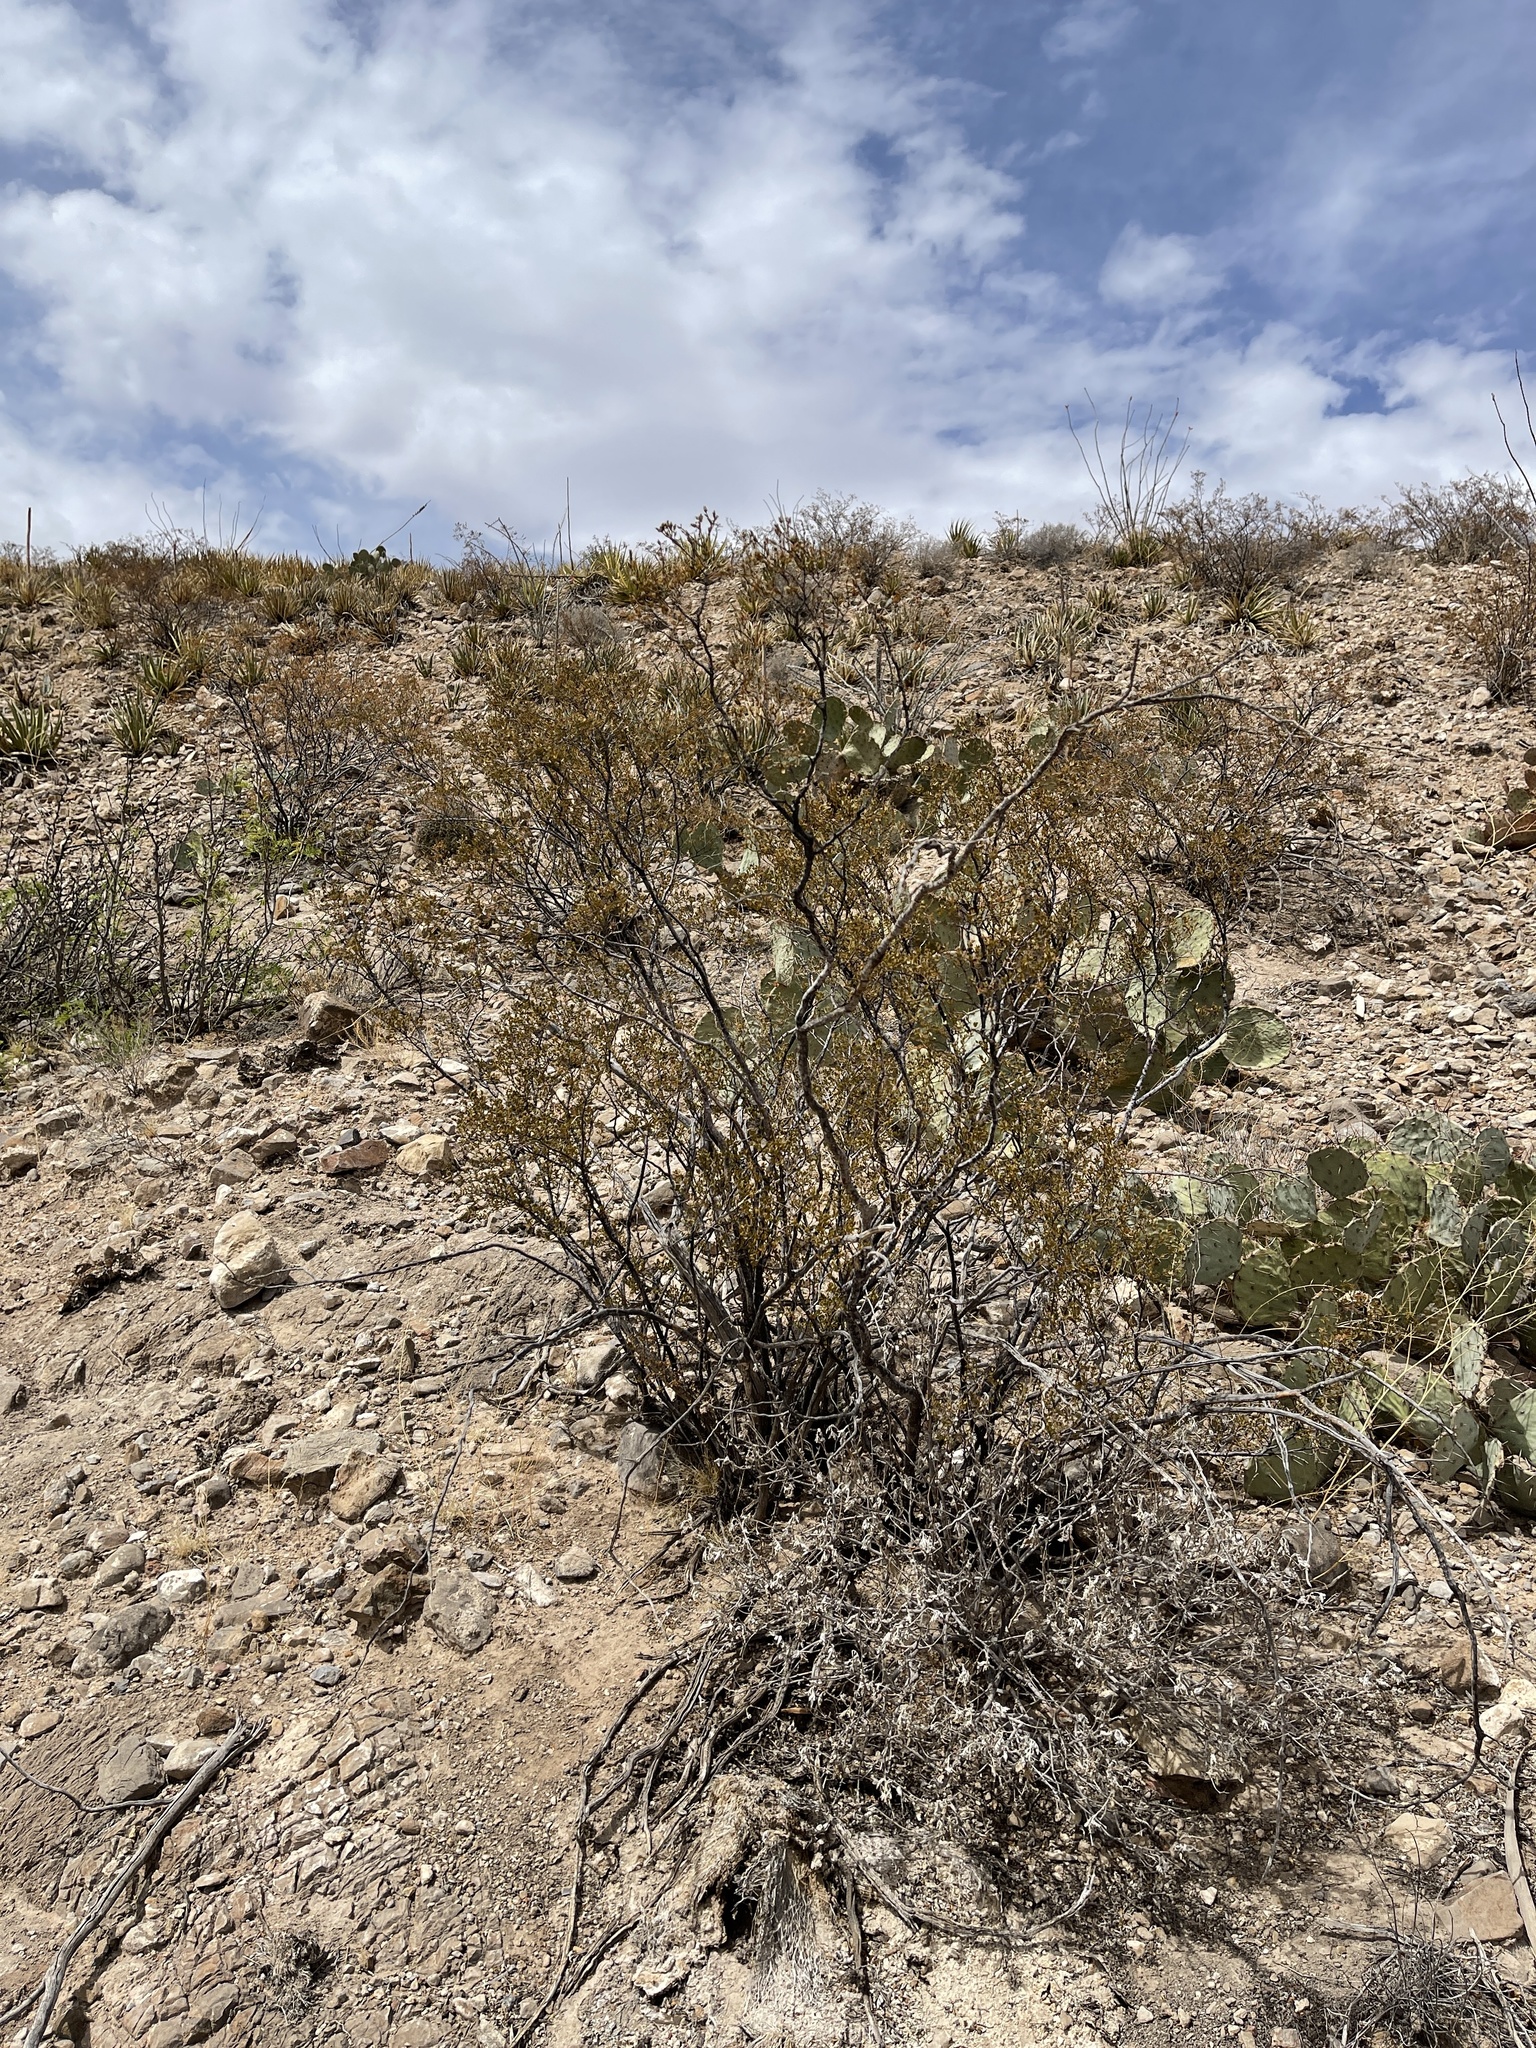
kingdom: Plantae
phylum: Tracheophyta
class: Magnoliopsida
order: Zygophyllales
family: Zygophyllaceae
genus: Larrea
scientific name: Larrea tridentata
